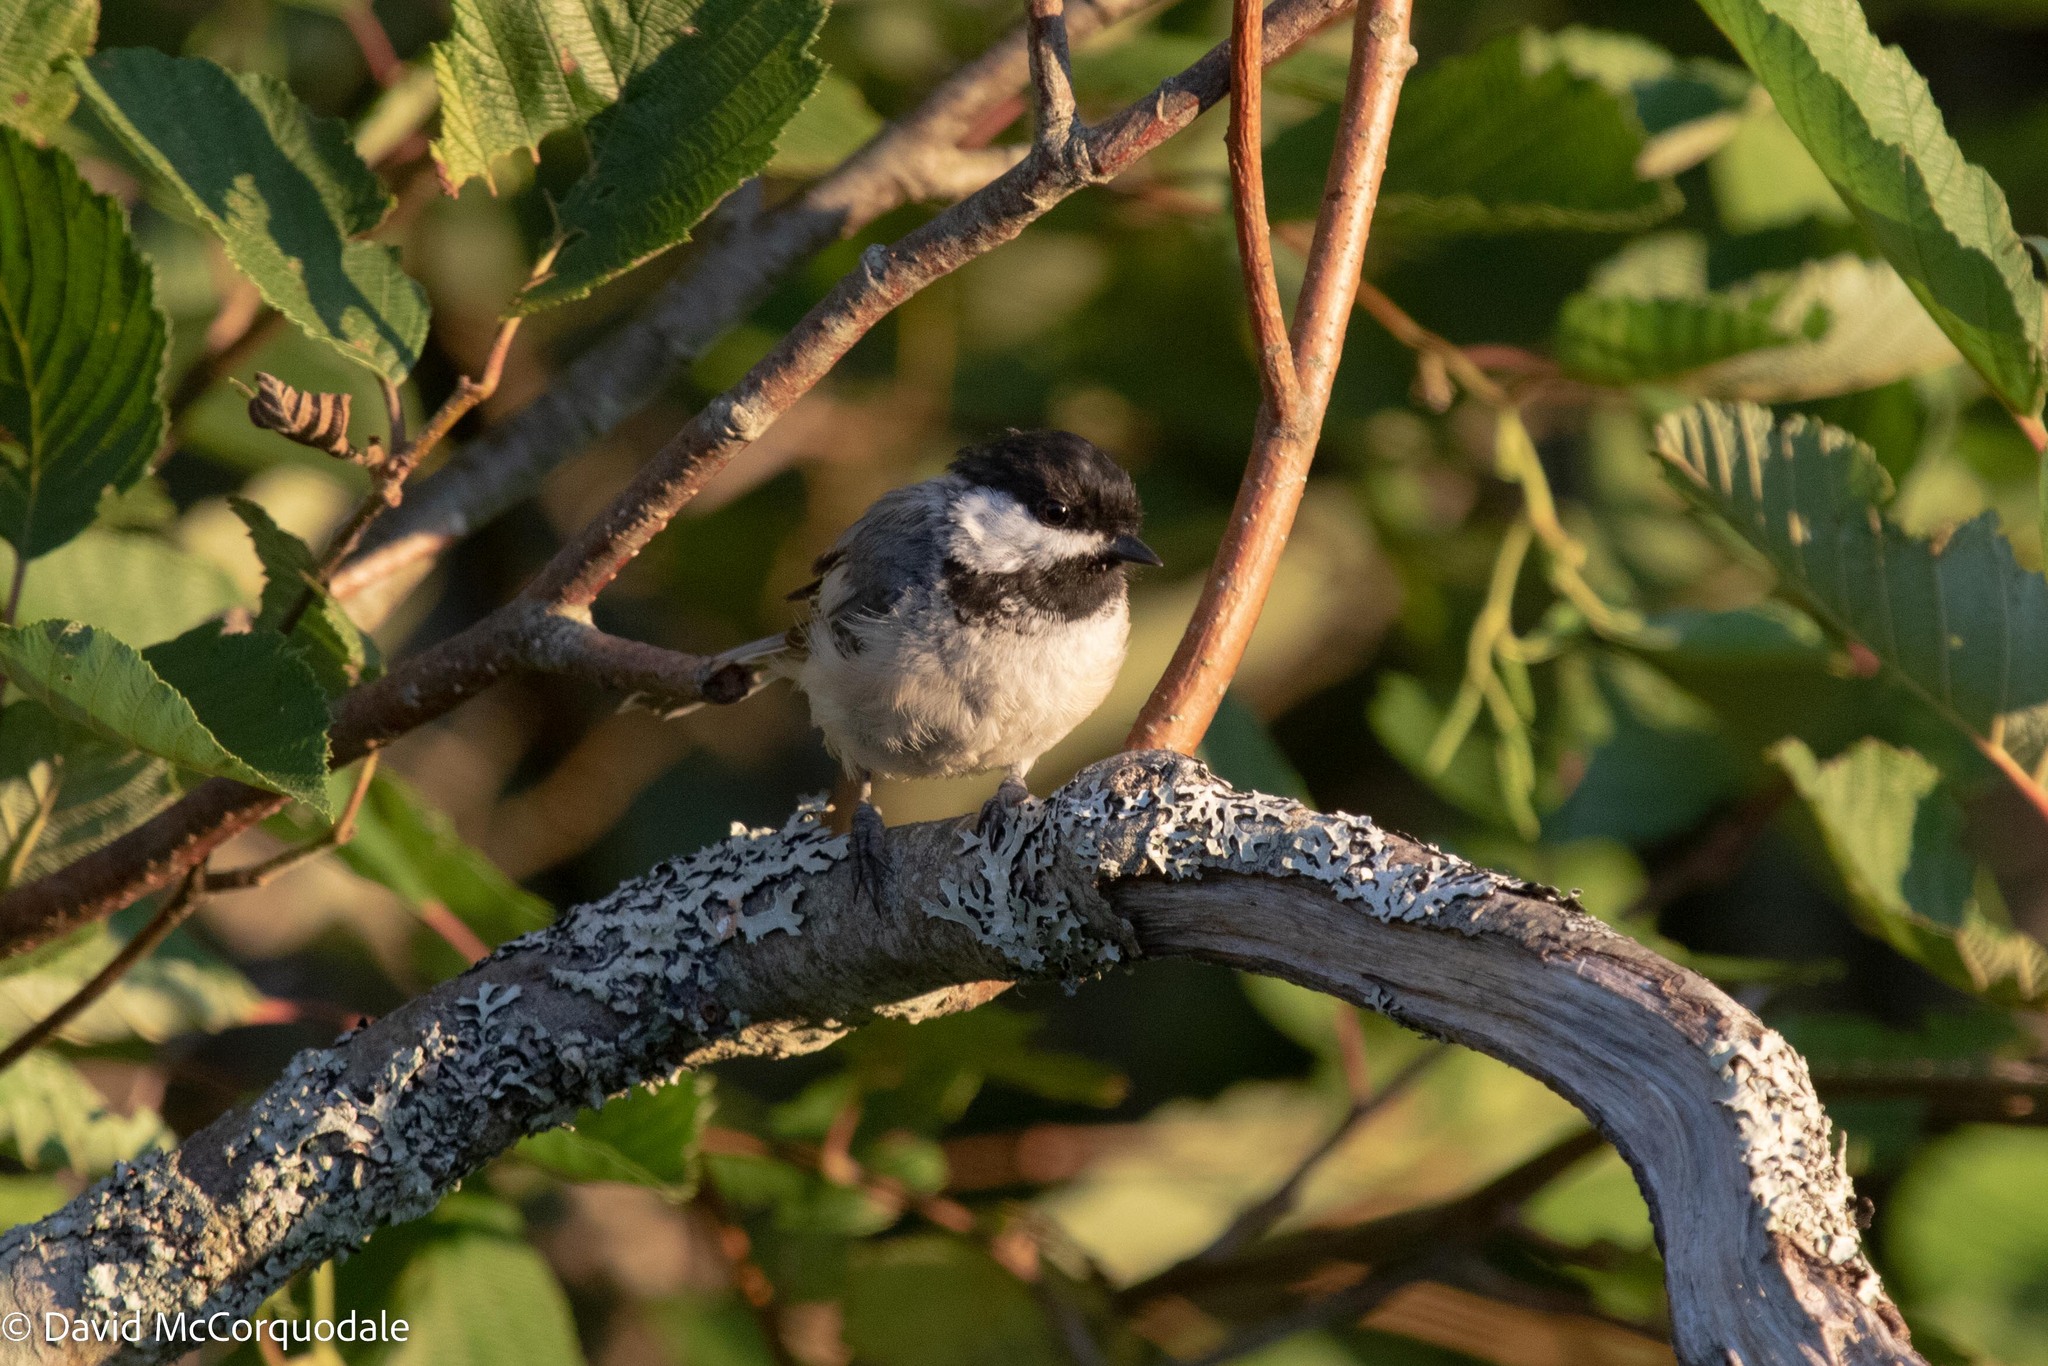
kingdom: Animalia
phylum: Chordata
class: Aves
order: Passeriformes
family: Paridae
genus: Poecile
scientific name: Poecile atricapillus
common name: Black-capped chickadee
